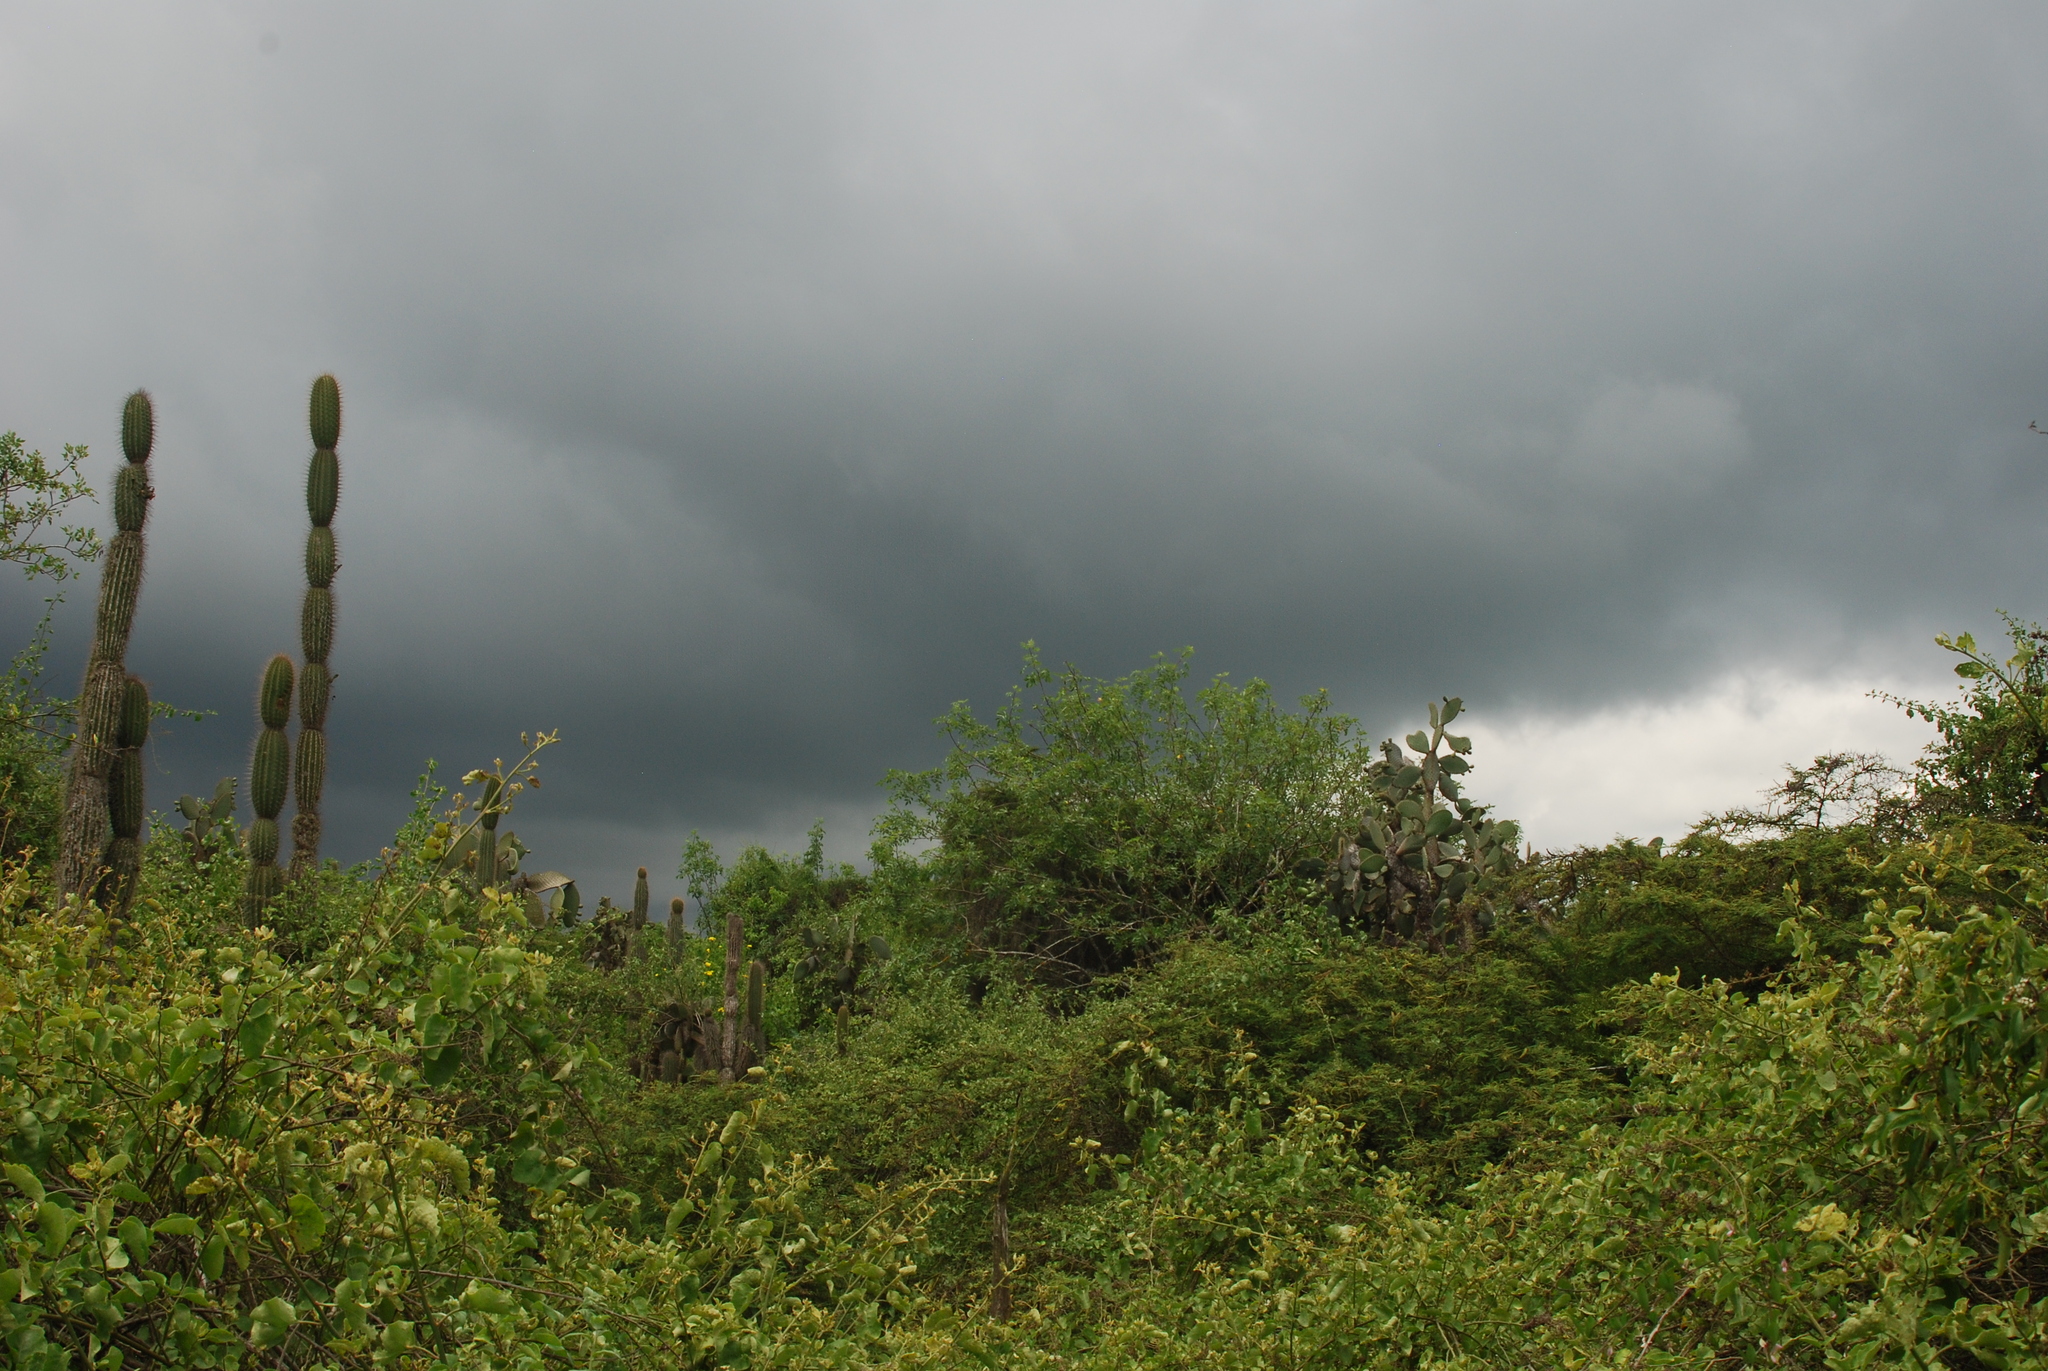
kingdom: Plantae
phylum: Tracheophyta
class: Magnoliopsida
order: Caryophyllales
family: Cactaceae
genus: Jasminocereus
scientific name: Jasminocereus thouarsii
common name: Candelabra cactus
